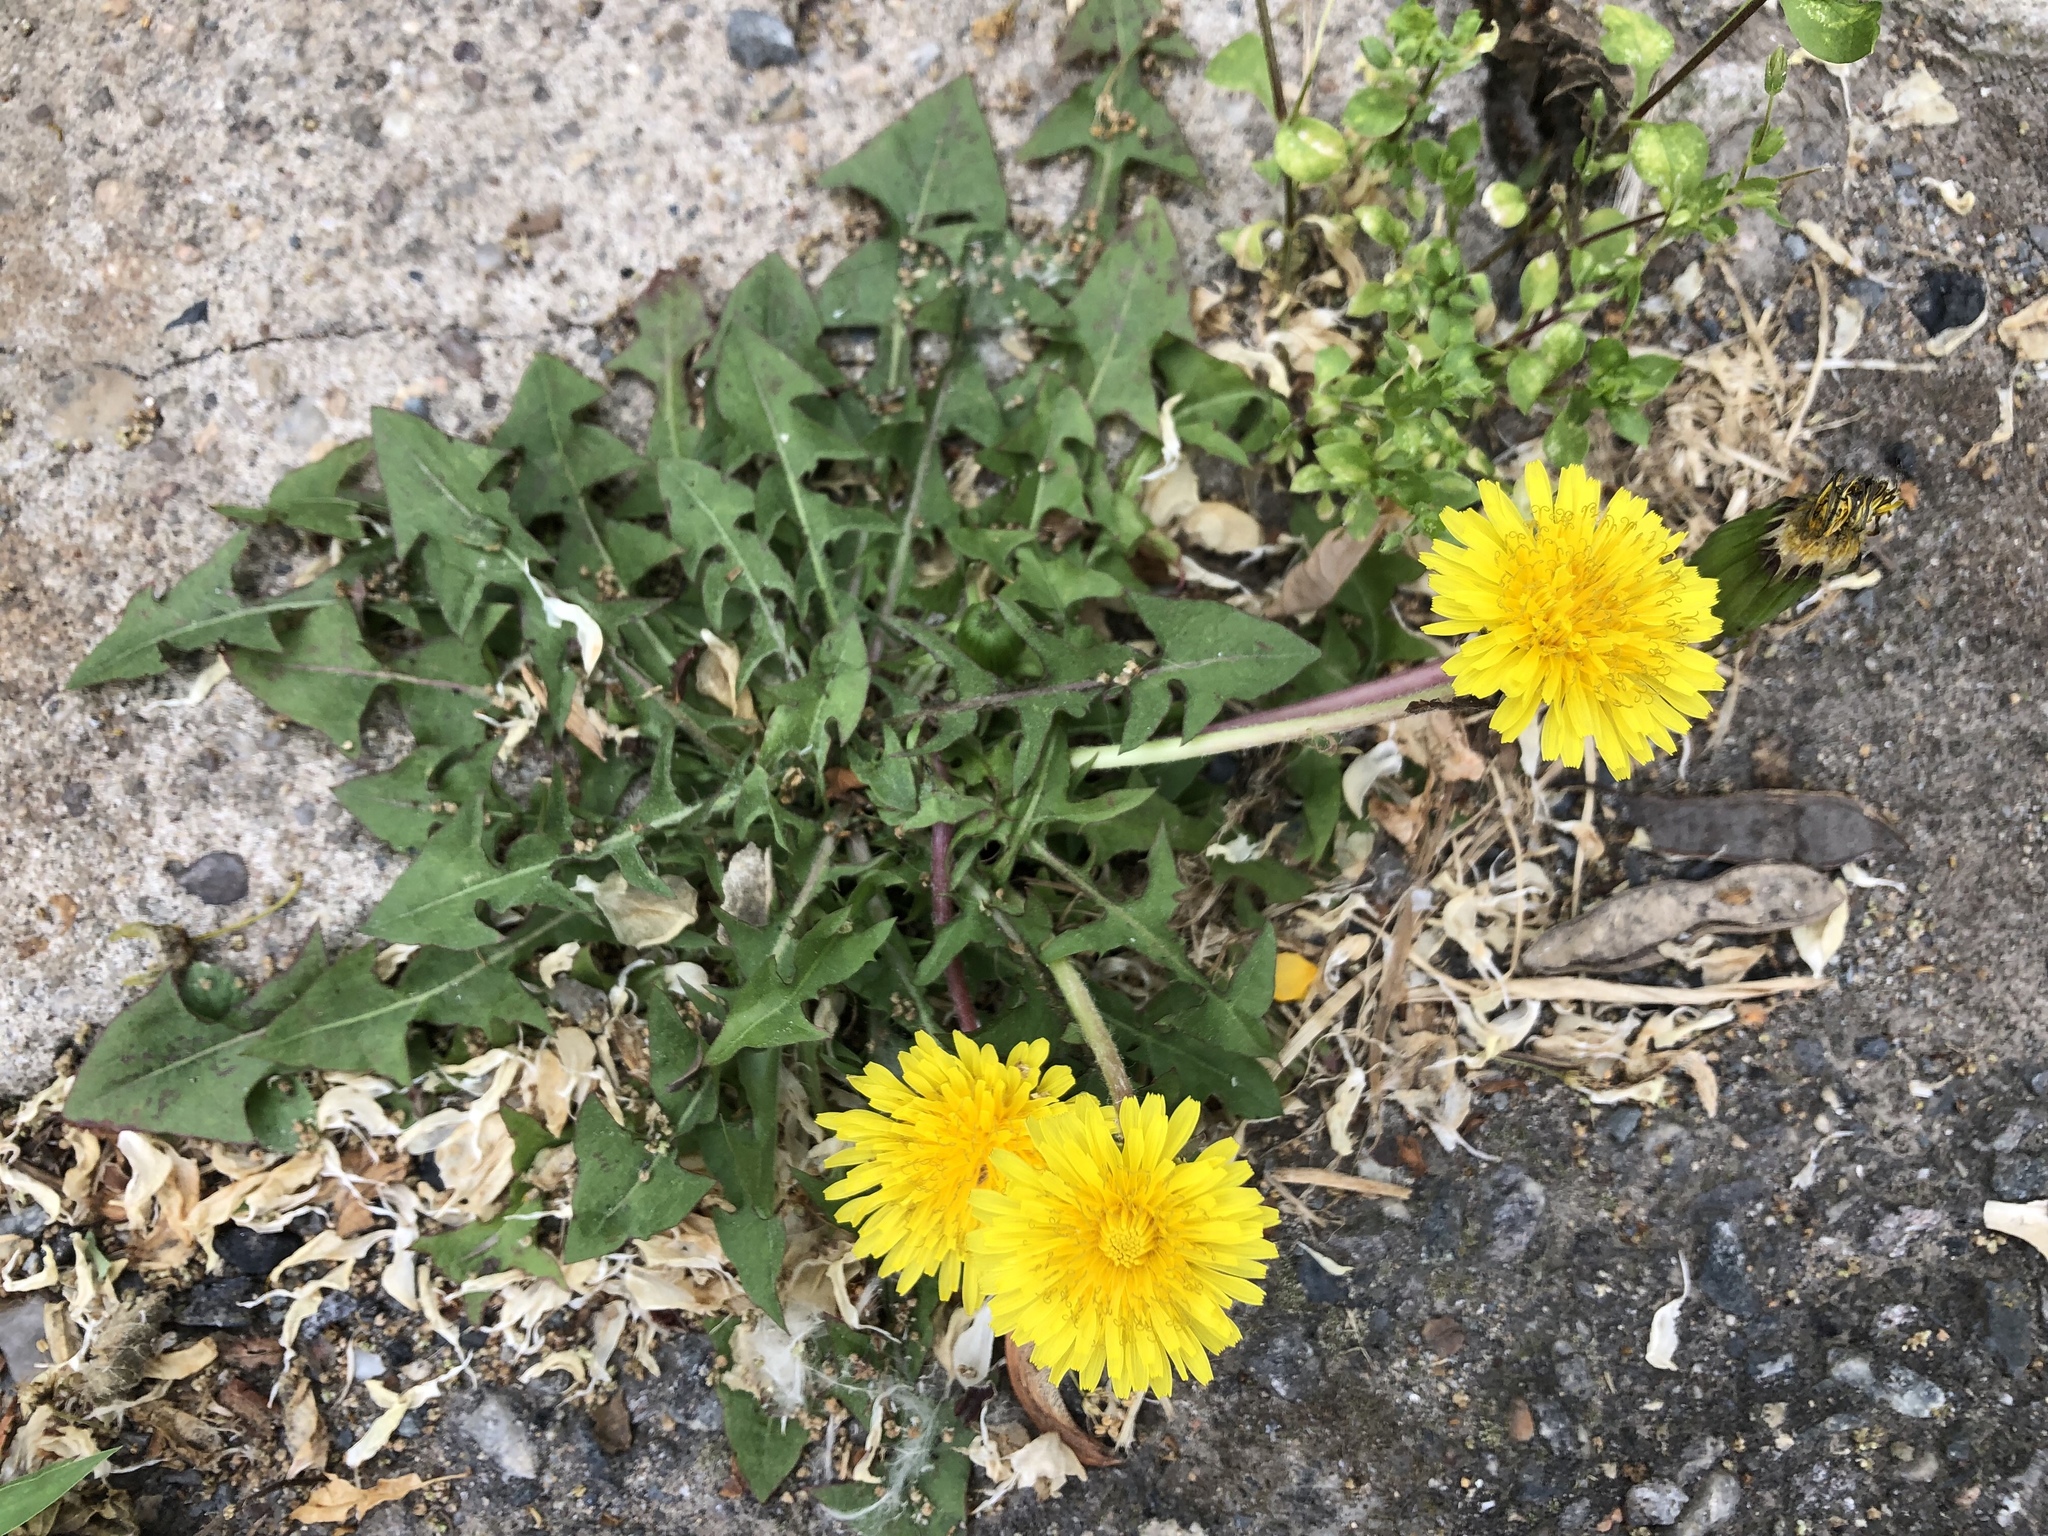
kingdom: Plantae
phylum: Tracheophyta
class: Magnoliopsida
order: Asterales
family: Asteraceae
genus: Taraxacum
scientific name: Taraxacum officinale
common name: Common dandelion
